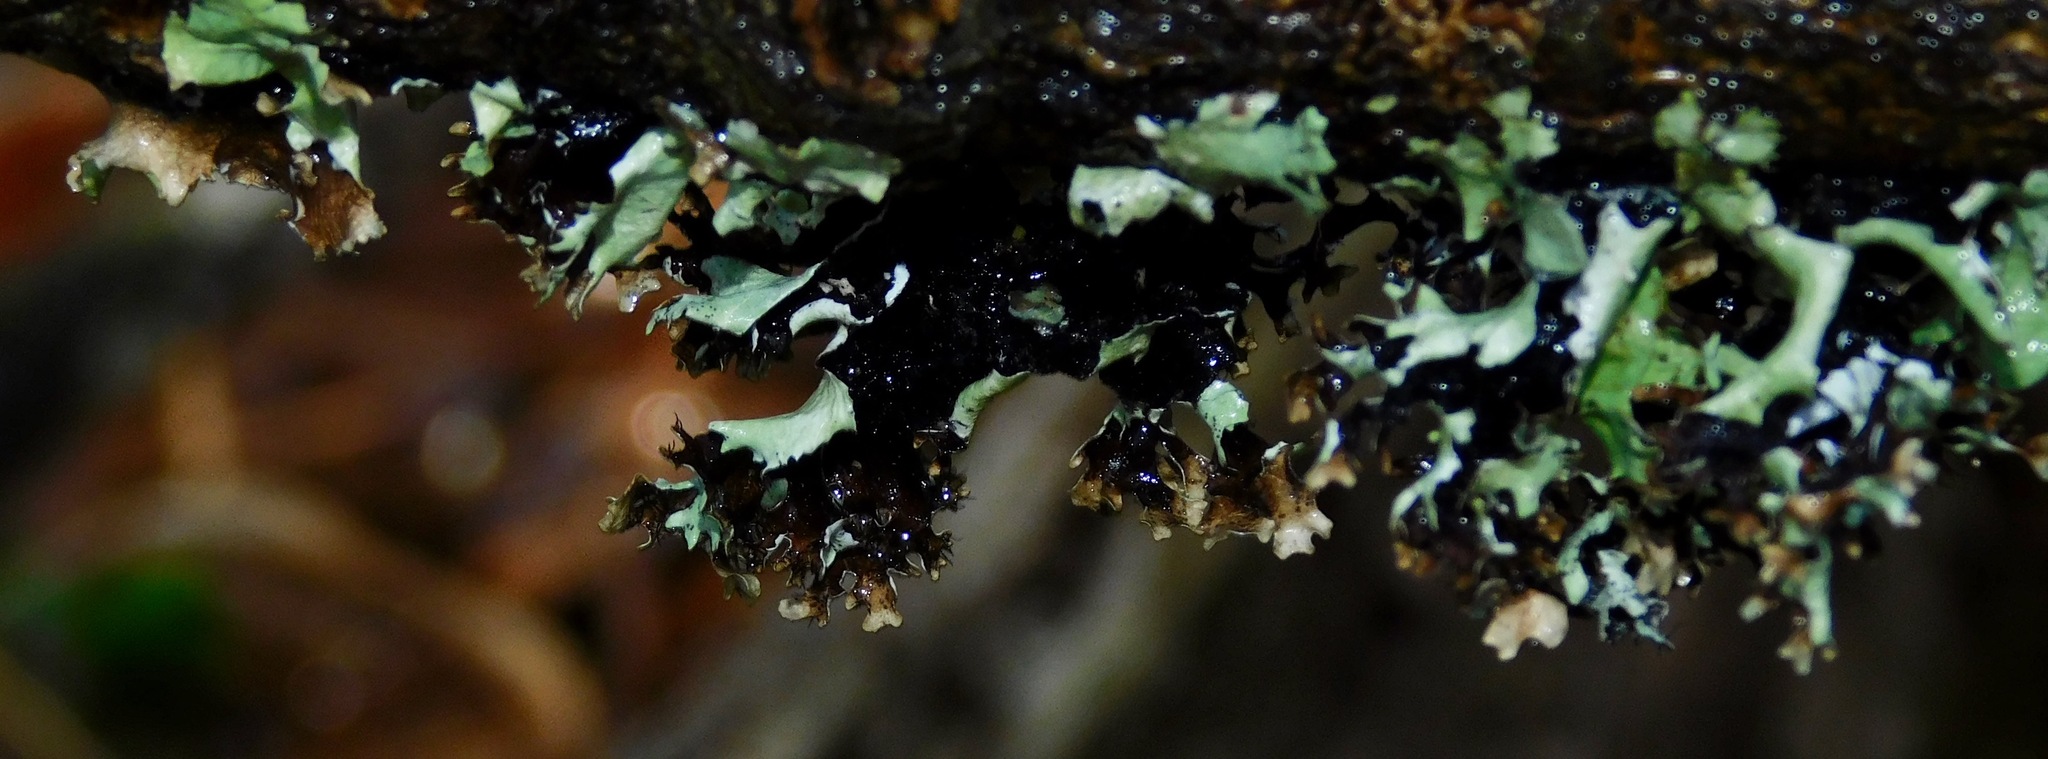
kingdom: Fungi
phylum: Ascomycota
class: Lecanoromycetes
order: Lecanorales
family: Parmeliaceae
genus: Parmotrema
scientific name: Parmotrema cetratum
